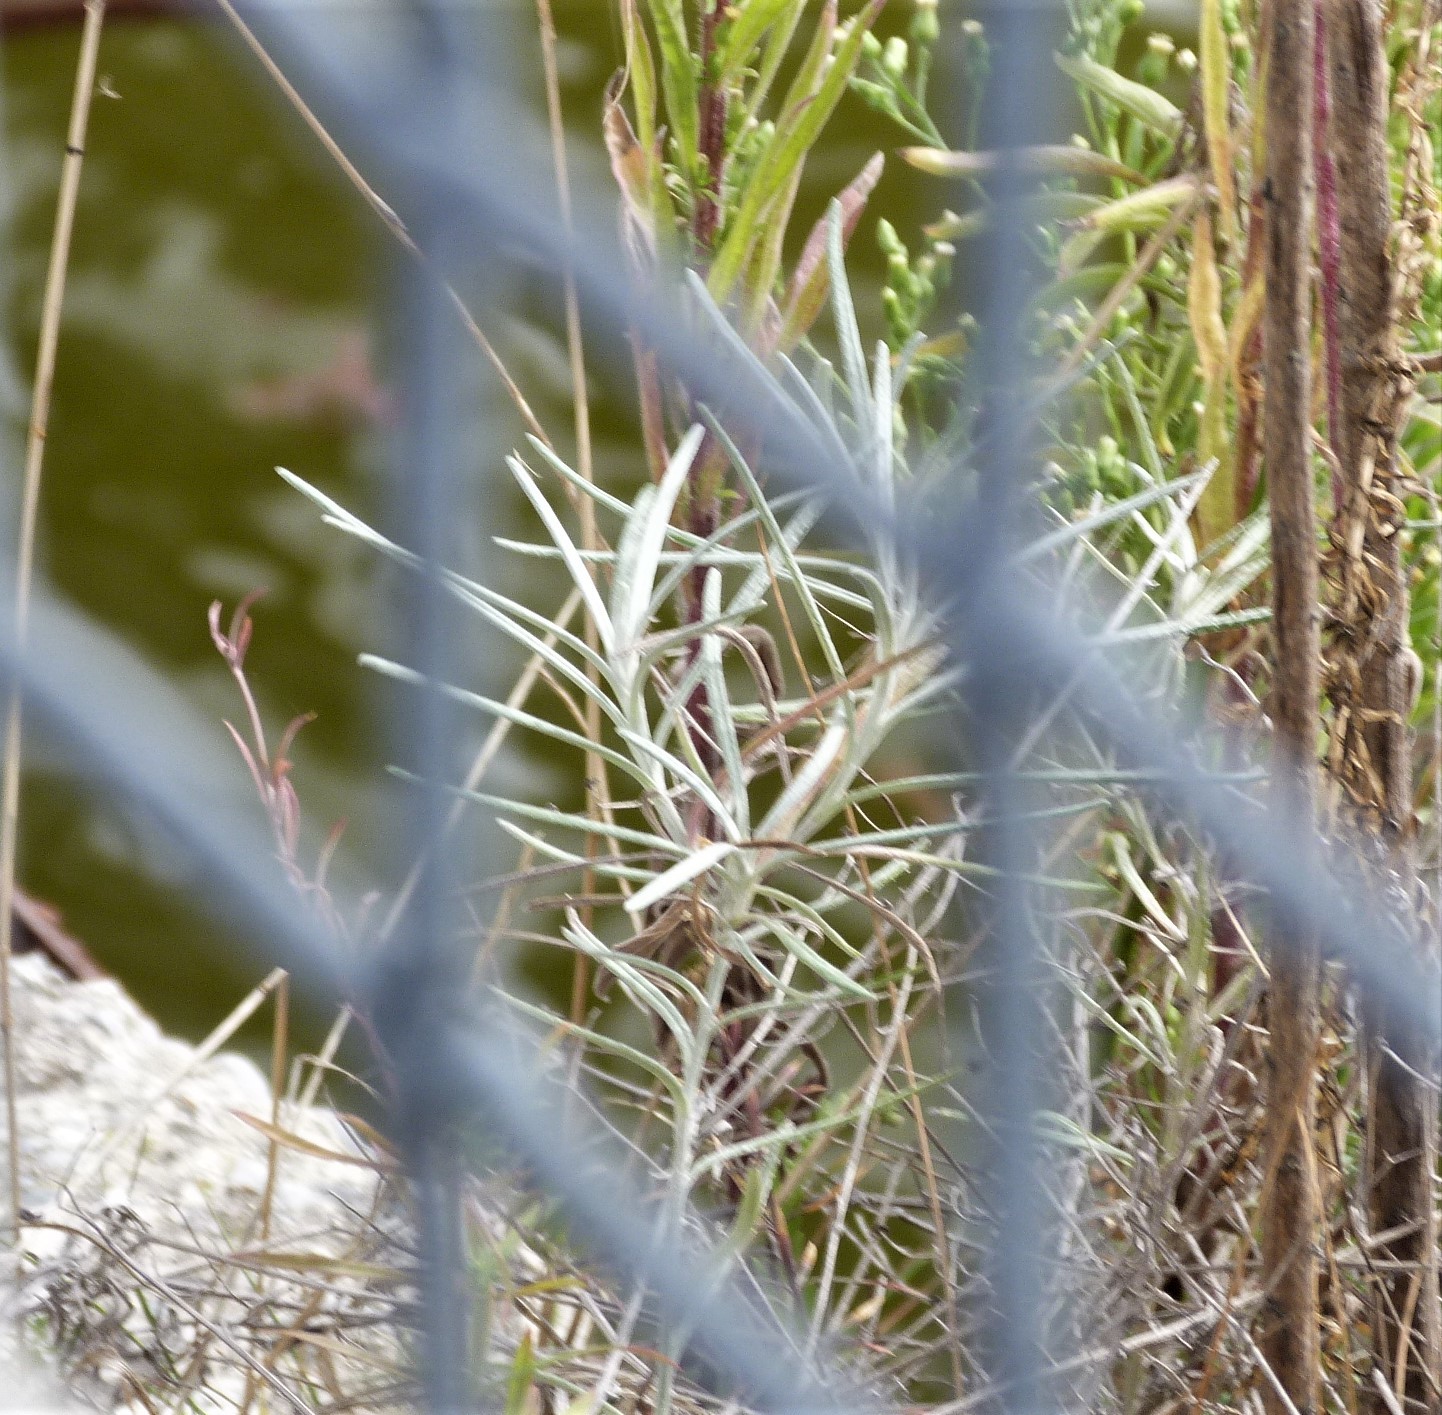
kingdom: Plantae
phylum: Tracheophyta
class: Magnoliopsida
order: Asterales
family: Asteraceae
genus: Senecio
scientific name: Senecio quadridentatus
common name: Cotton fireweed
